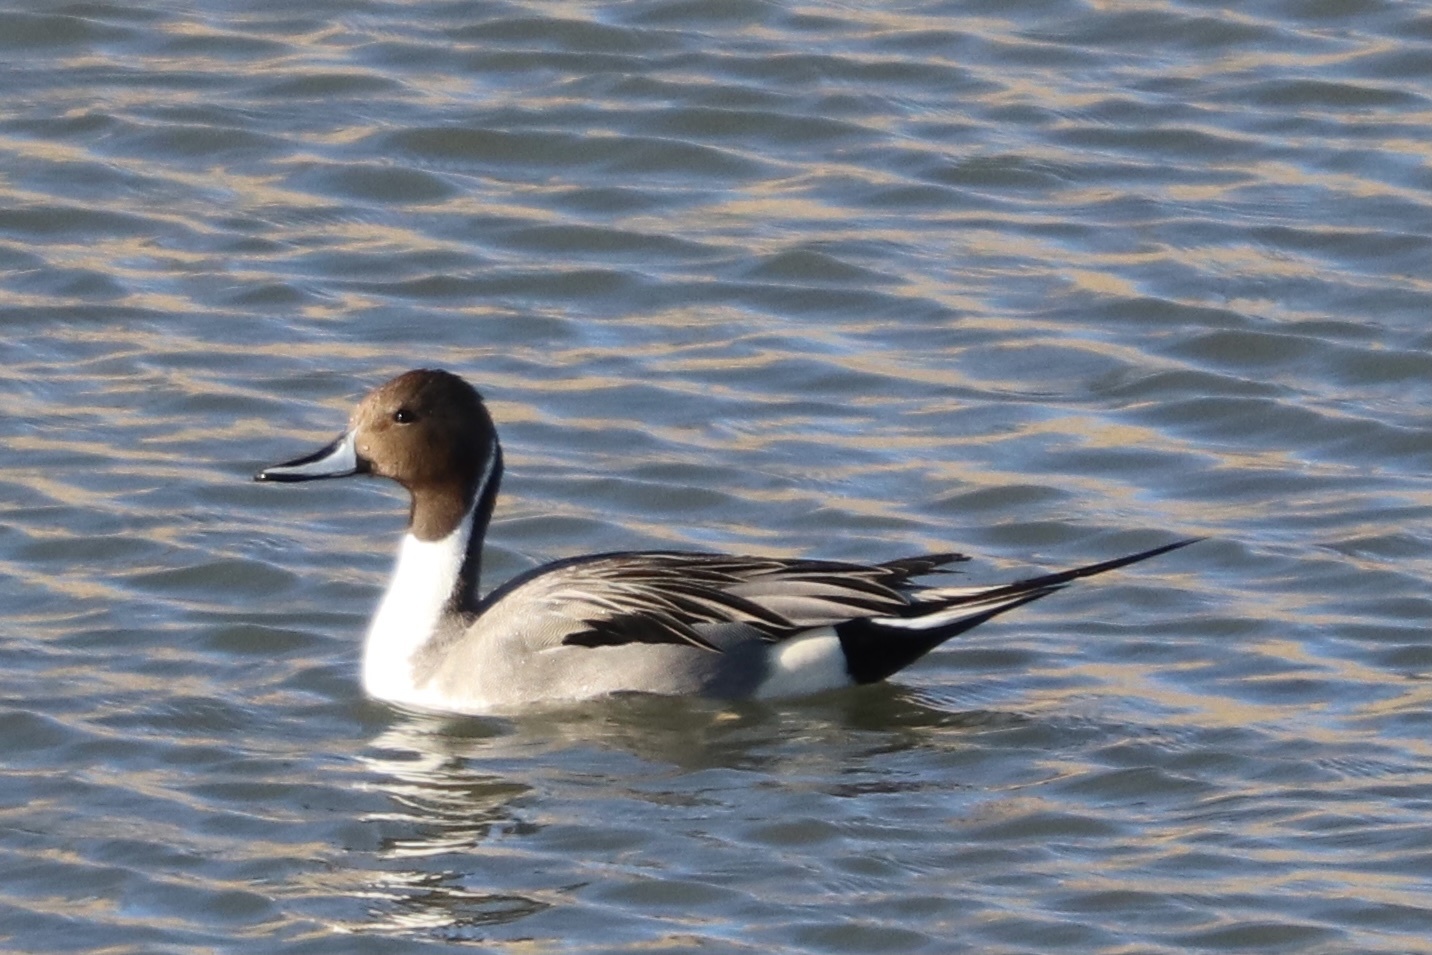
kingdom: Animalia
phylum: Chordata
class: Aves
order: Anseriformes
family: Anatidae
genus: Anas
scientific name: Anas acuta
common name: Northern pintail
